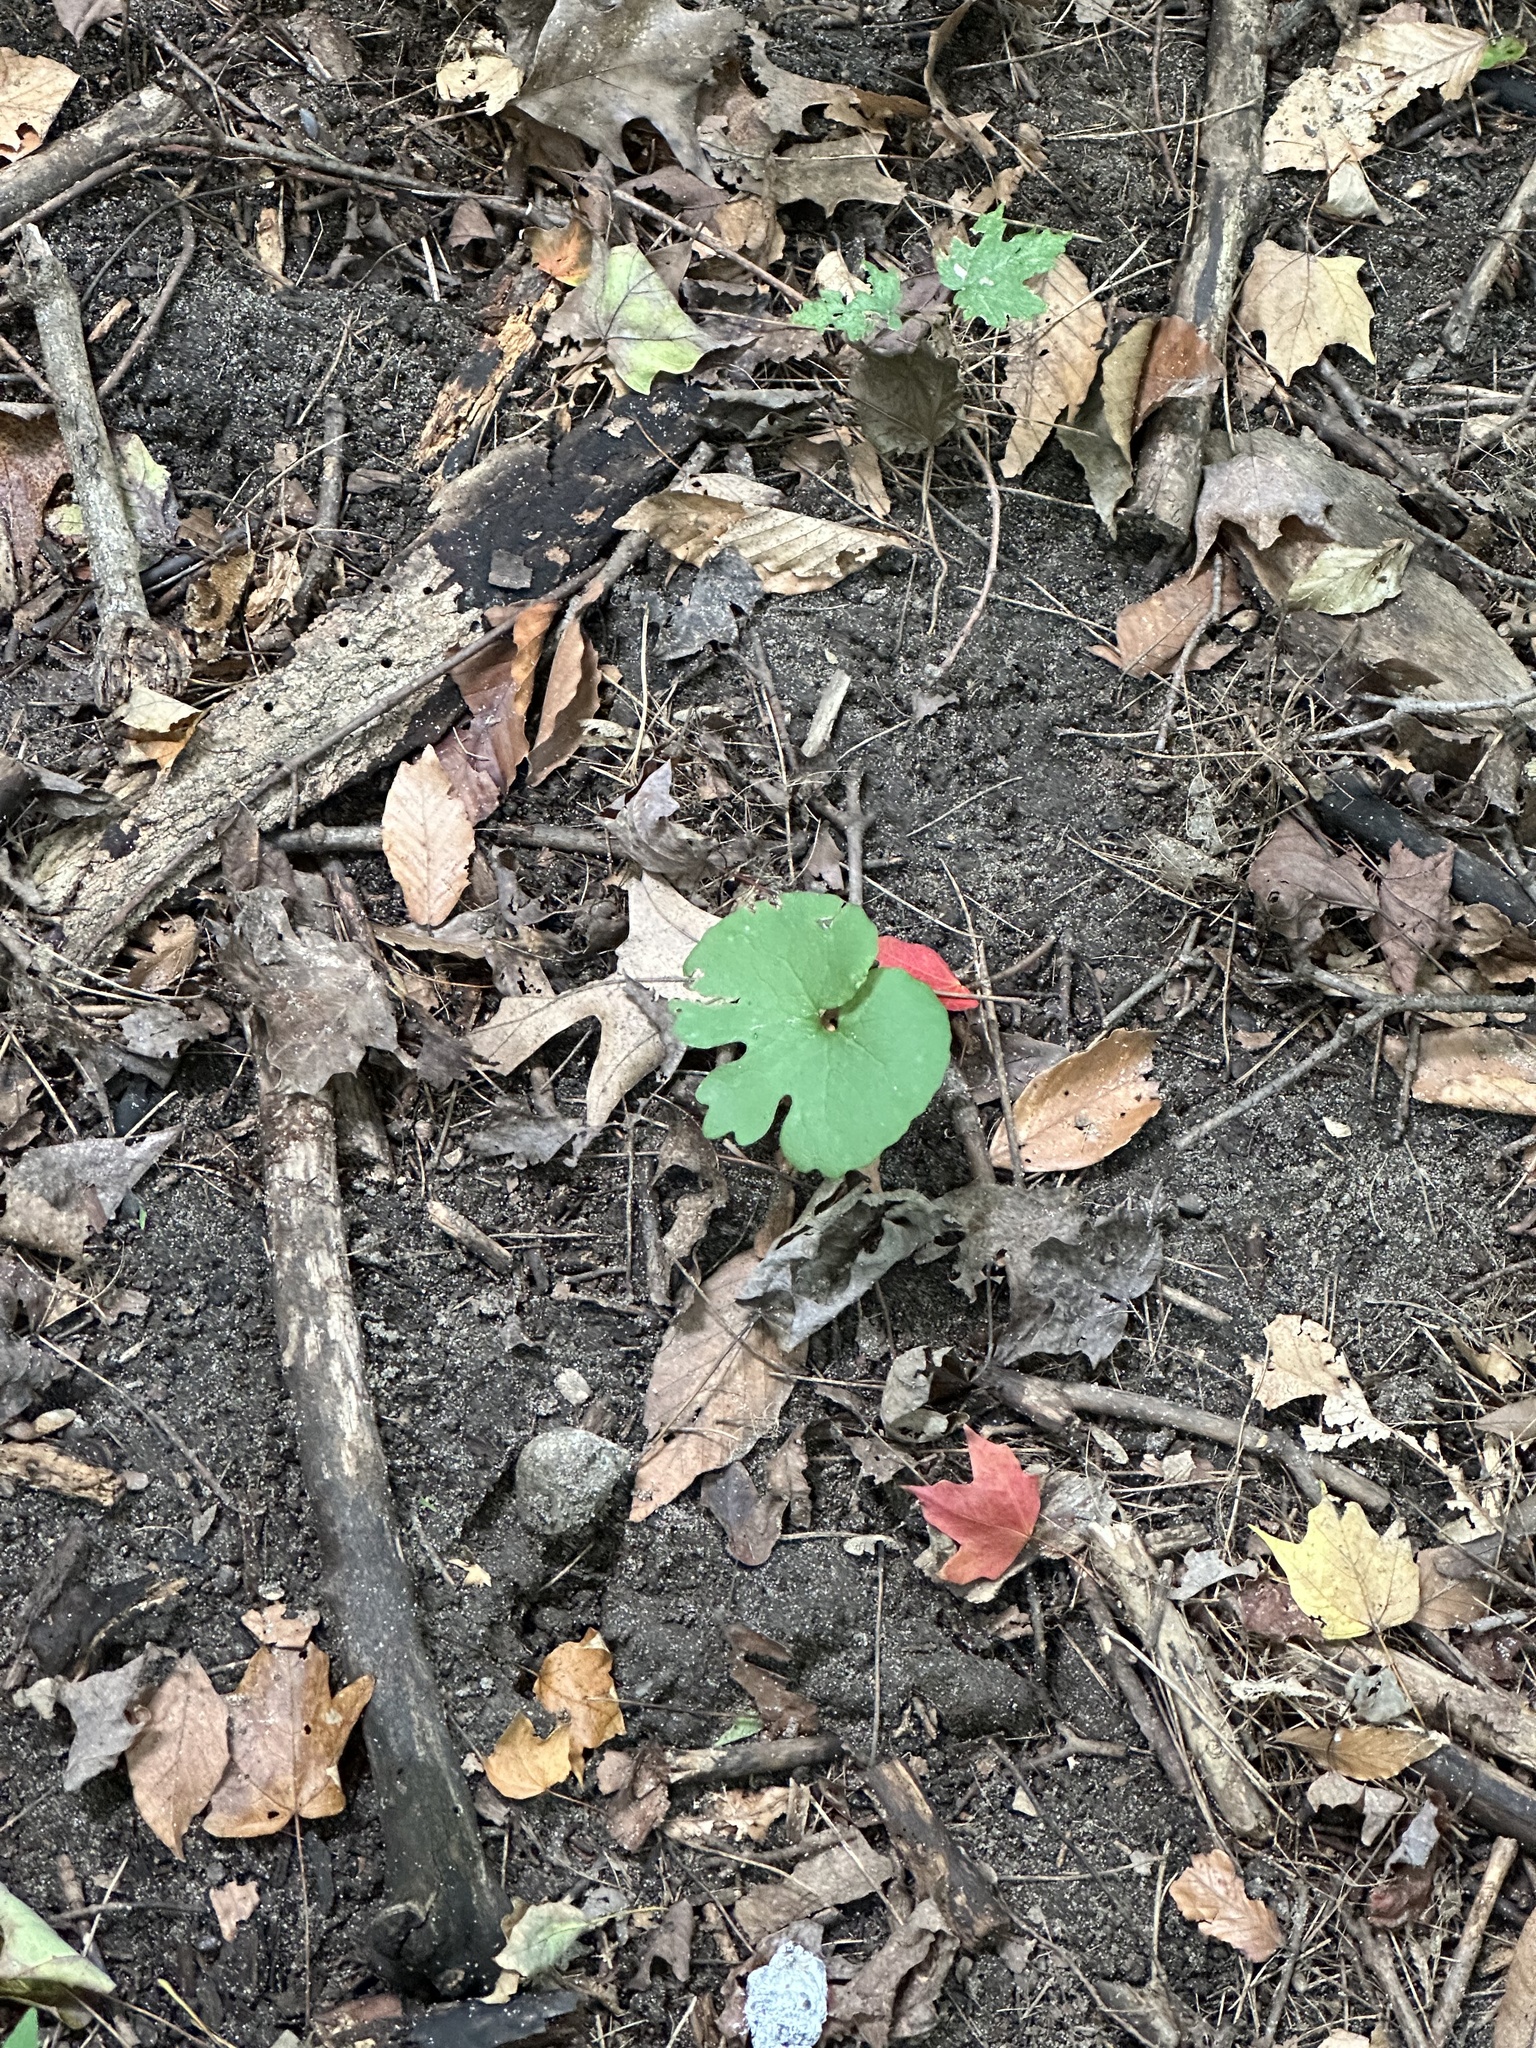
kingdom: Plantae
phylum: Tracheophyta
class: Magnoliopsida
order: Ranunculales
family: Papaveraceae
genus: Sanguinaria
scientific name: Sanguinaria canadensis
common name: Bloodroot
